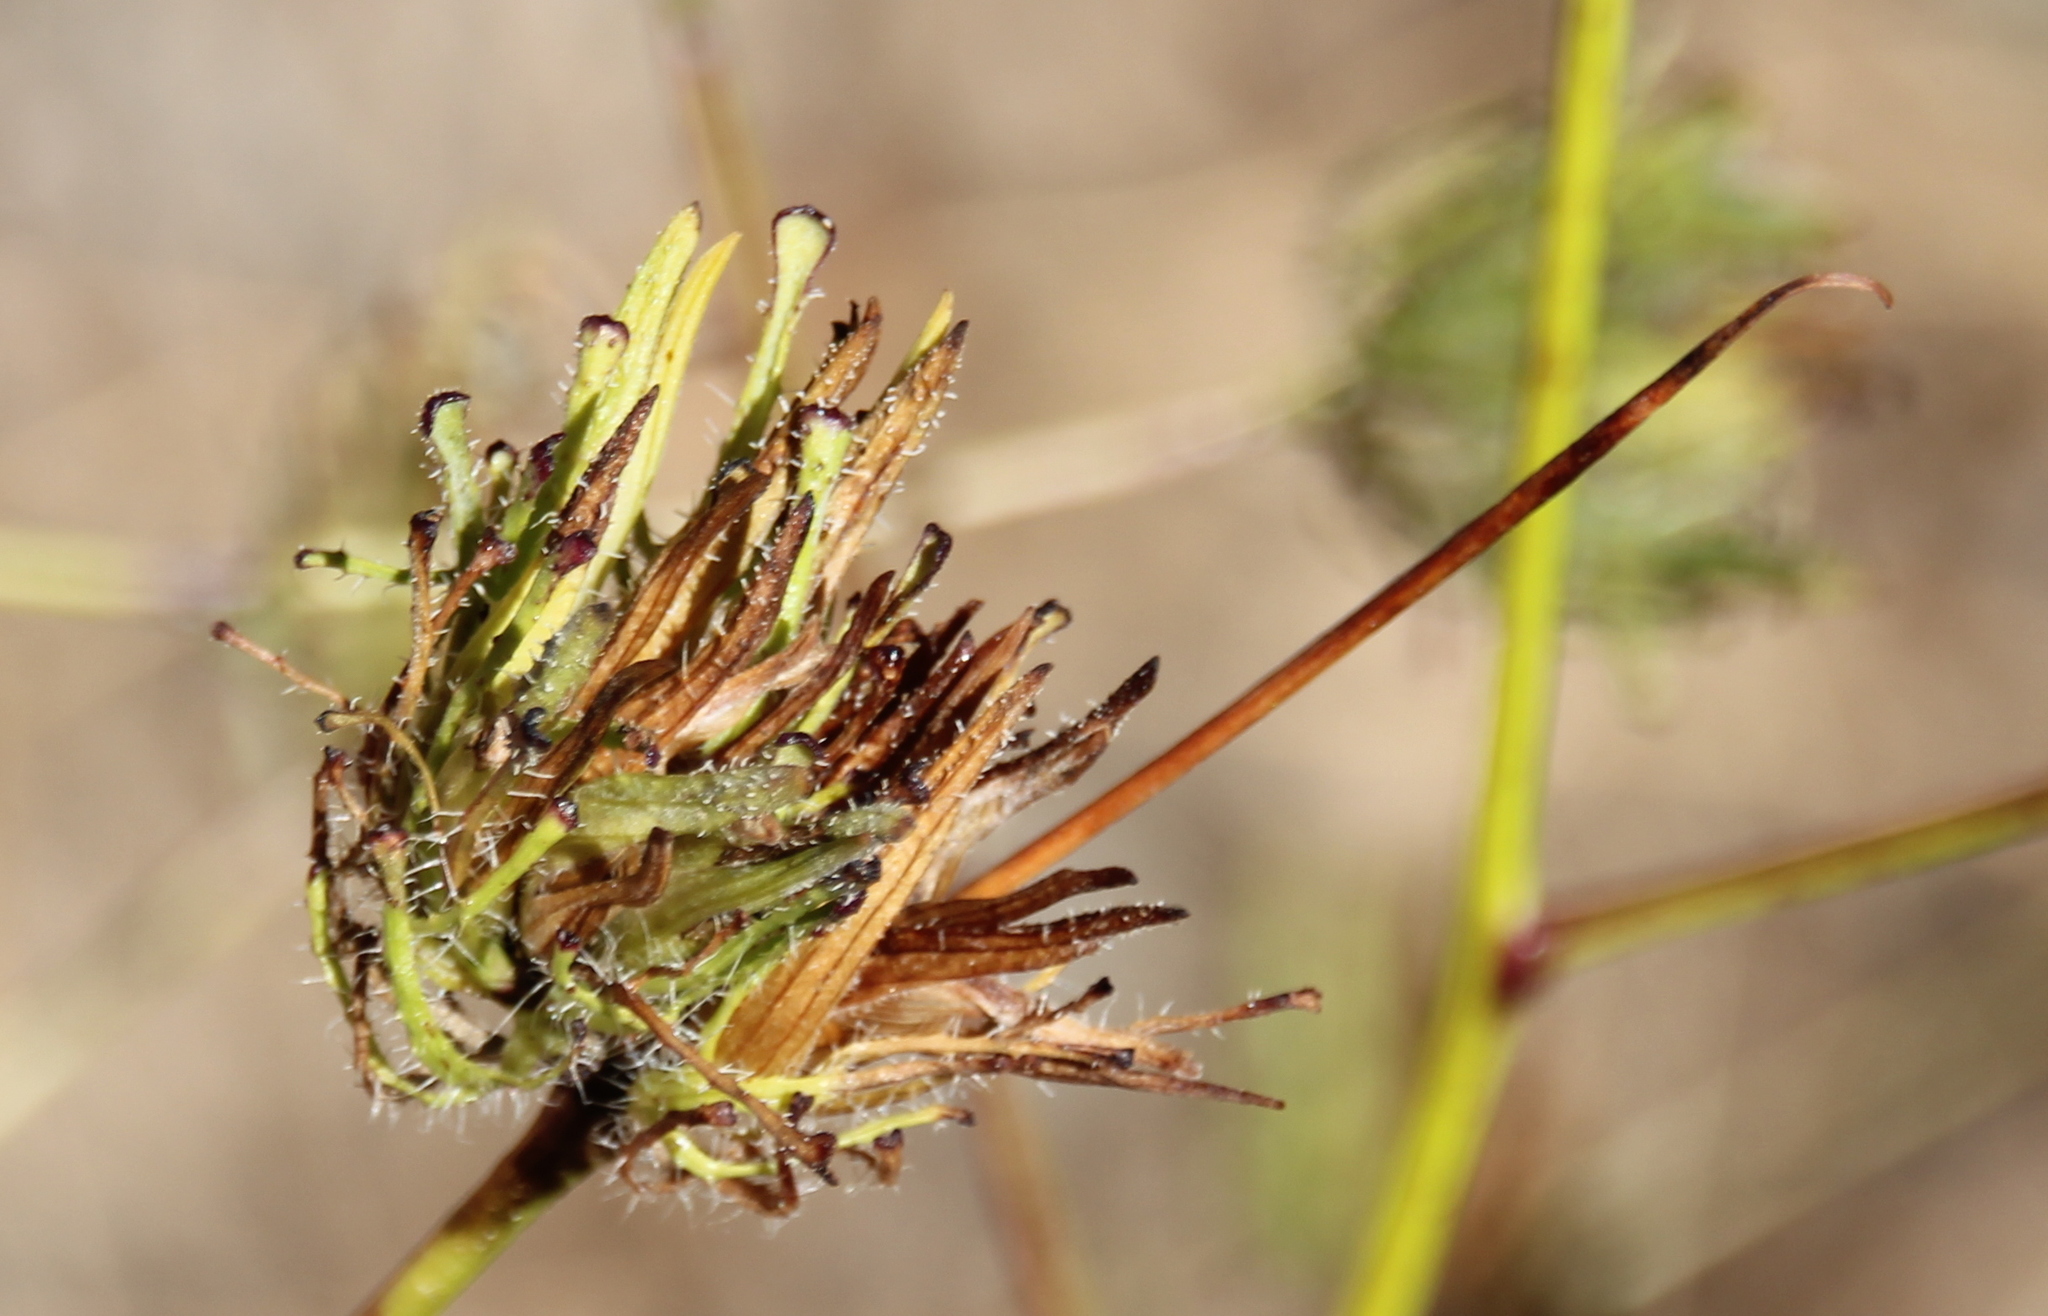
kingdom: Plantae
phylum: Tracheophyta
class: Magnoliopsida
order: Lamiales
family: Orobanchaceae
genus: Cordylanthus
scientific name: Cordylanthus rigidus
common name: Stiff-branch bird's-beak
